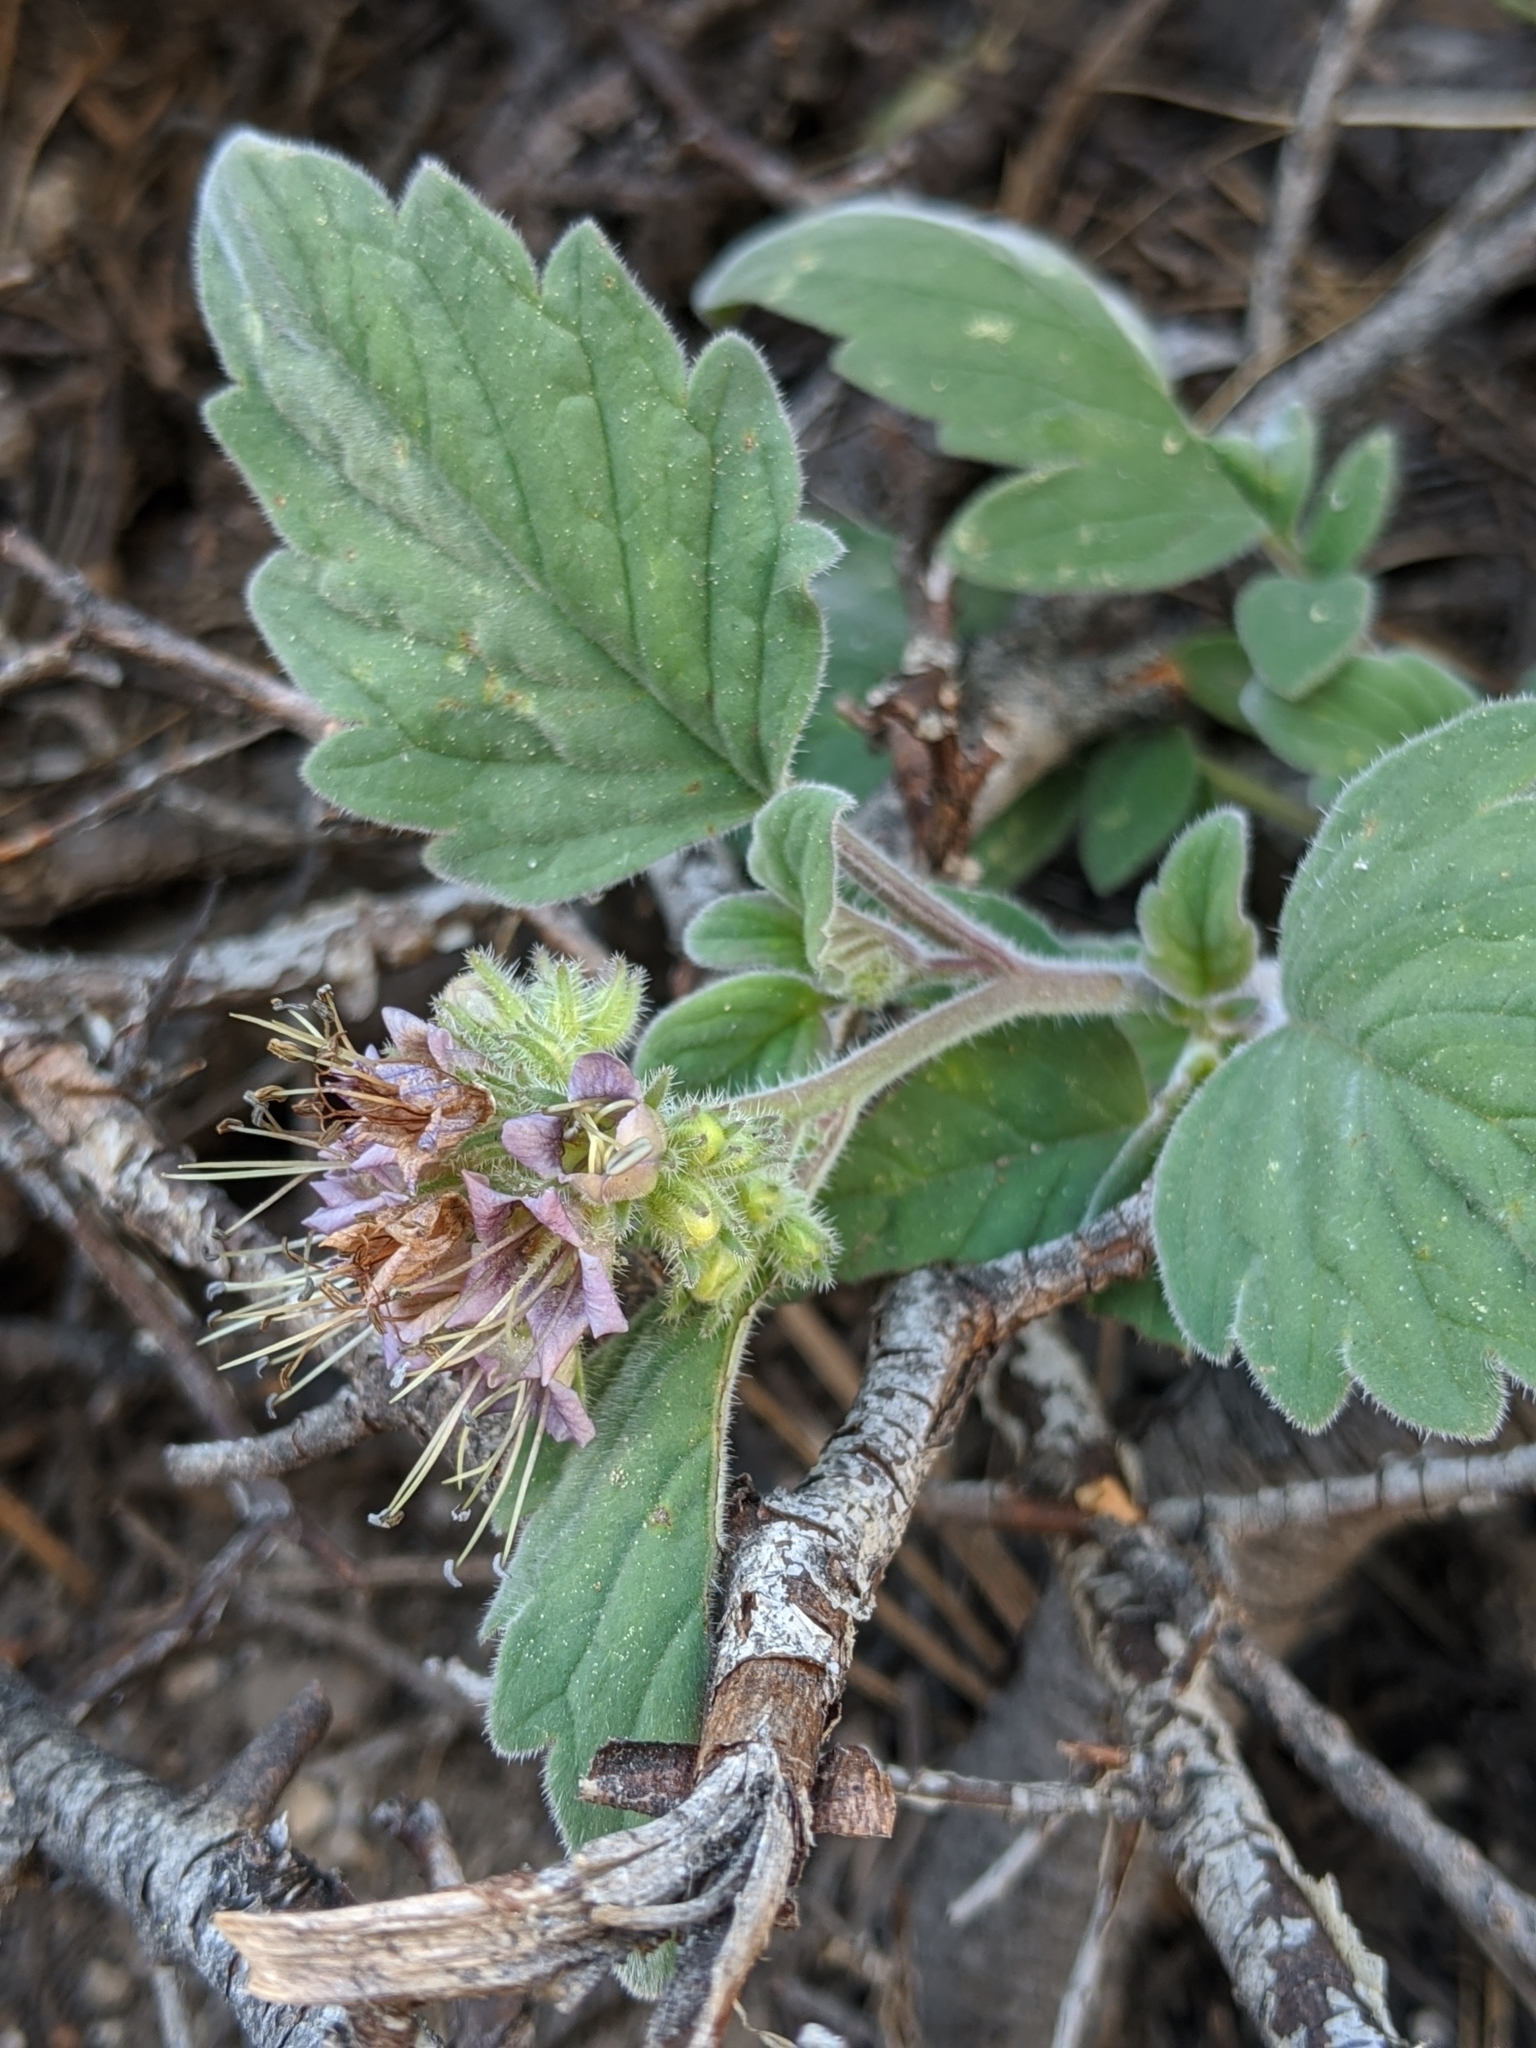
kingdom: Plantae
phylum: Tracheophyta
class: Magnoliopsida
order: Boraginales
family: Hydrophyllaceae
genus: Phacelia
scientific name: Phacelia hydrophylloides
